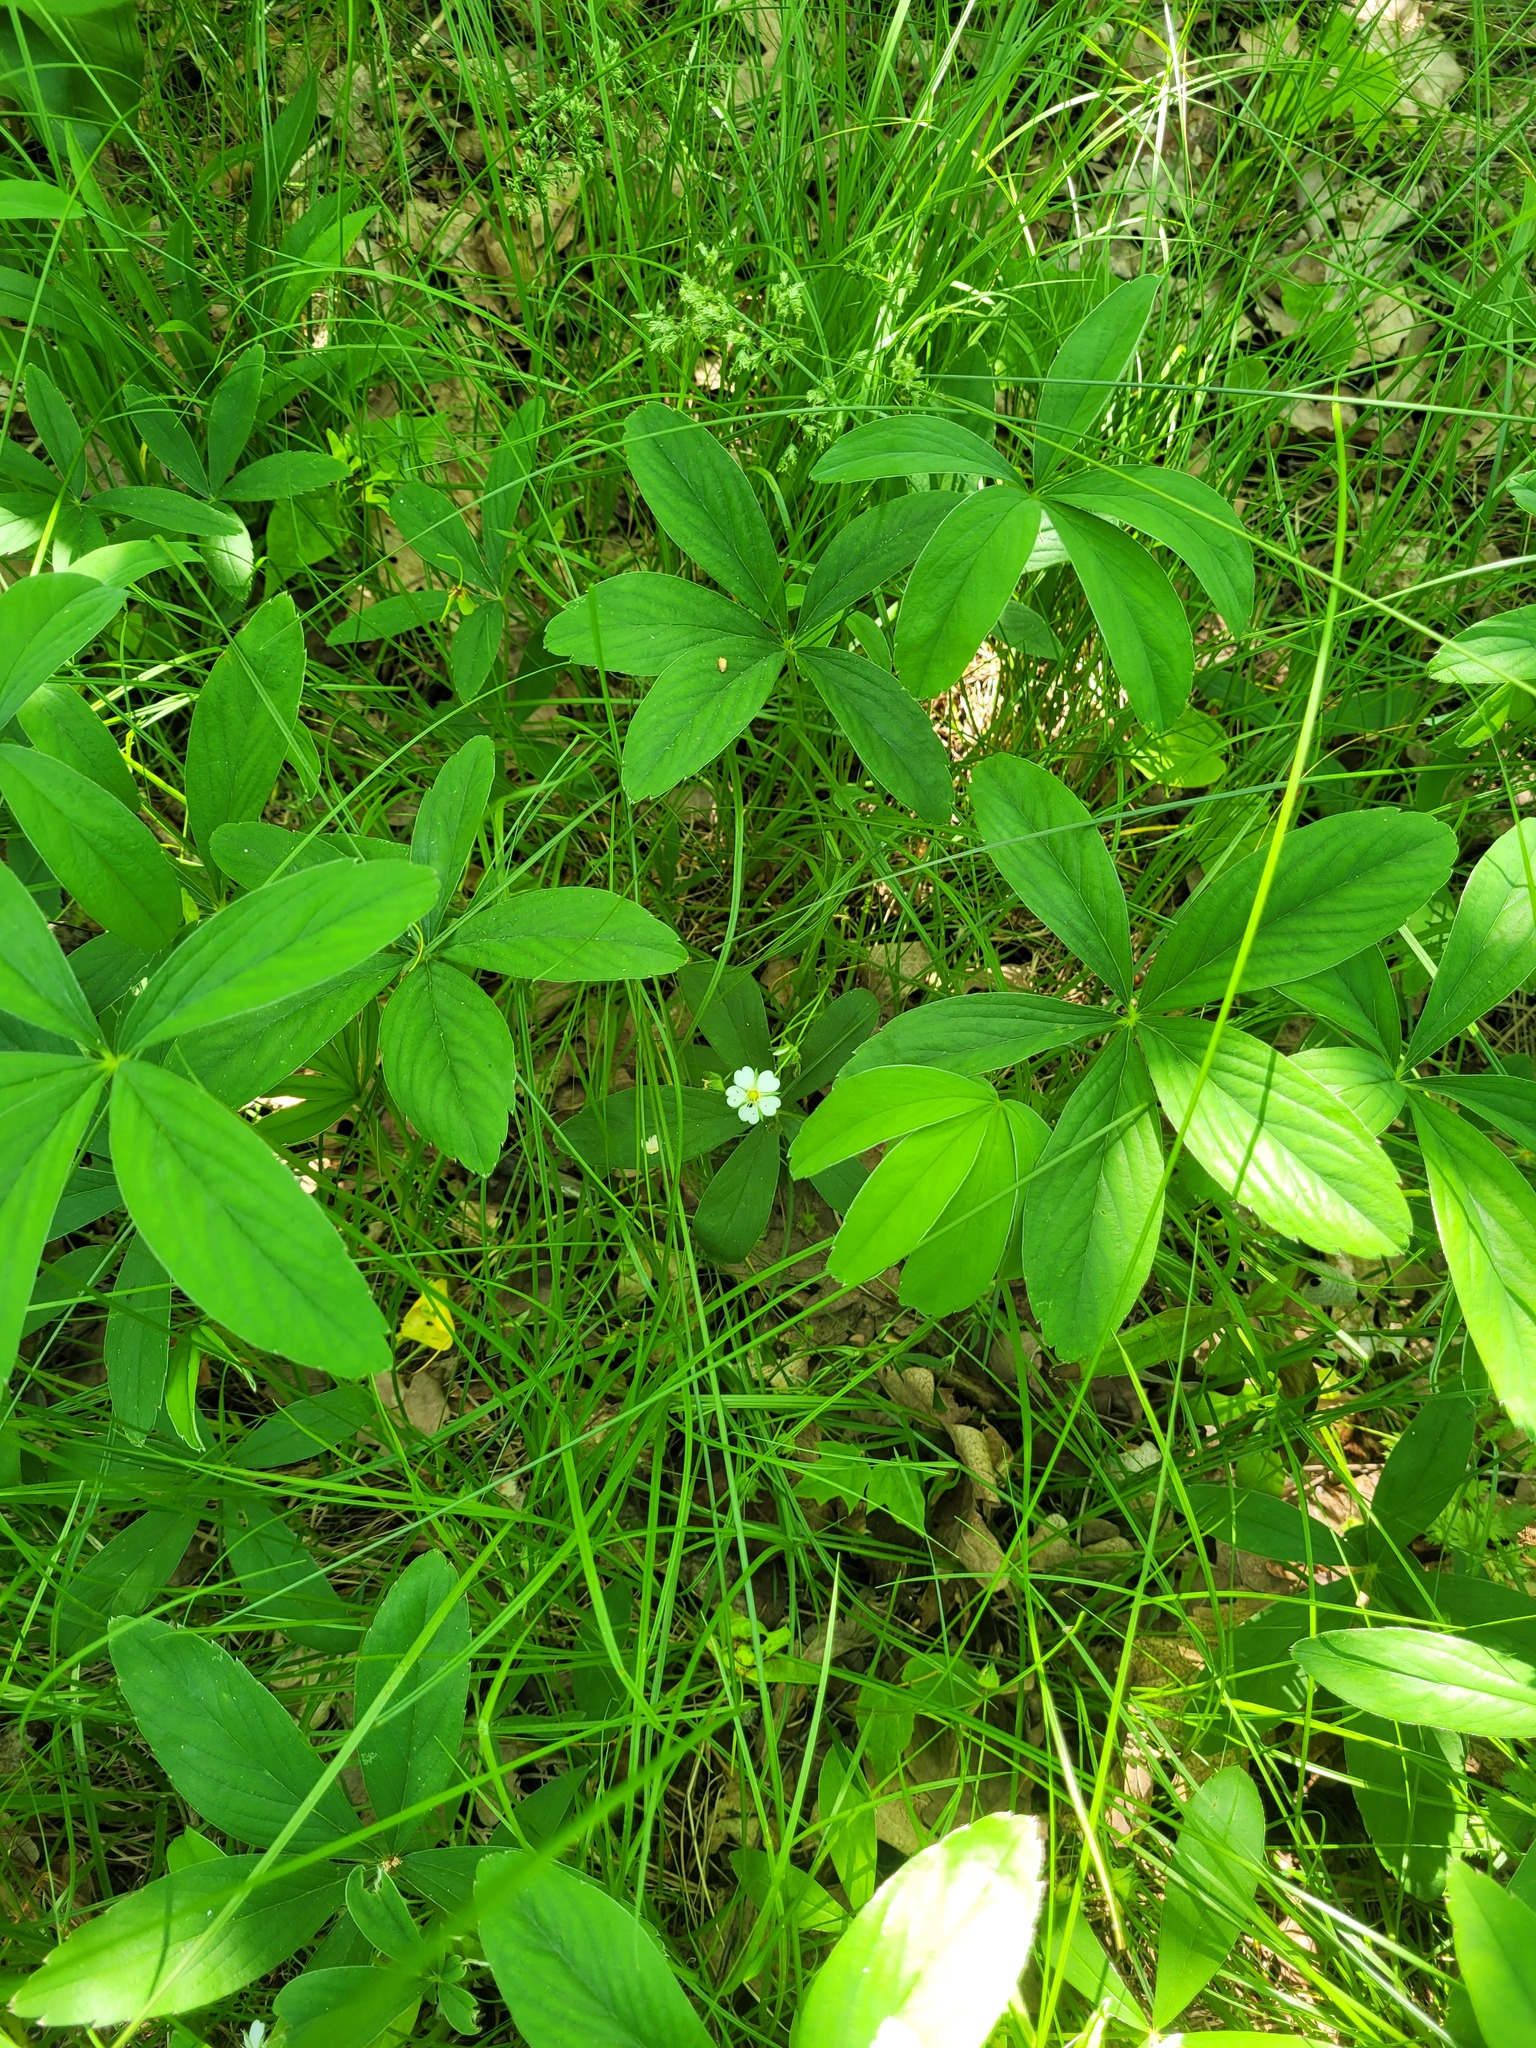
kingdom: Plantae
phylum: Tracheophyta
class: Magnoliopsida
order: Rosales
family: Rosaceae
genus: Potentilla
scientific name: Potentilla alba
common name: White cinquefoil
